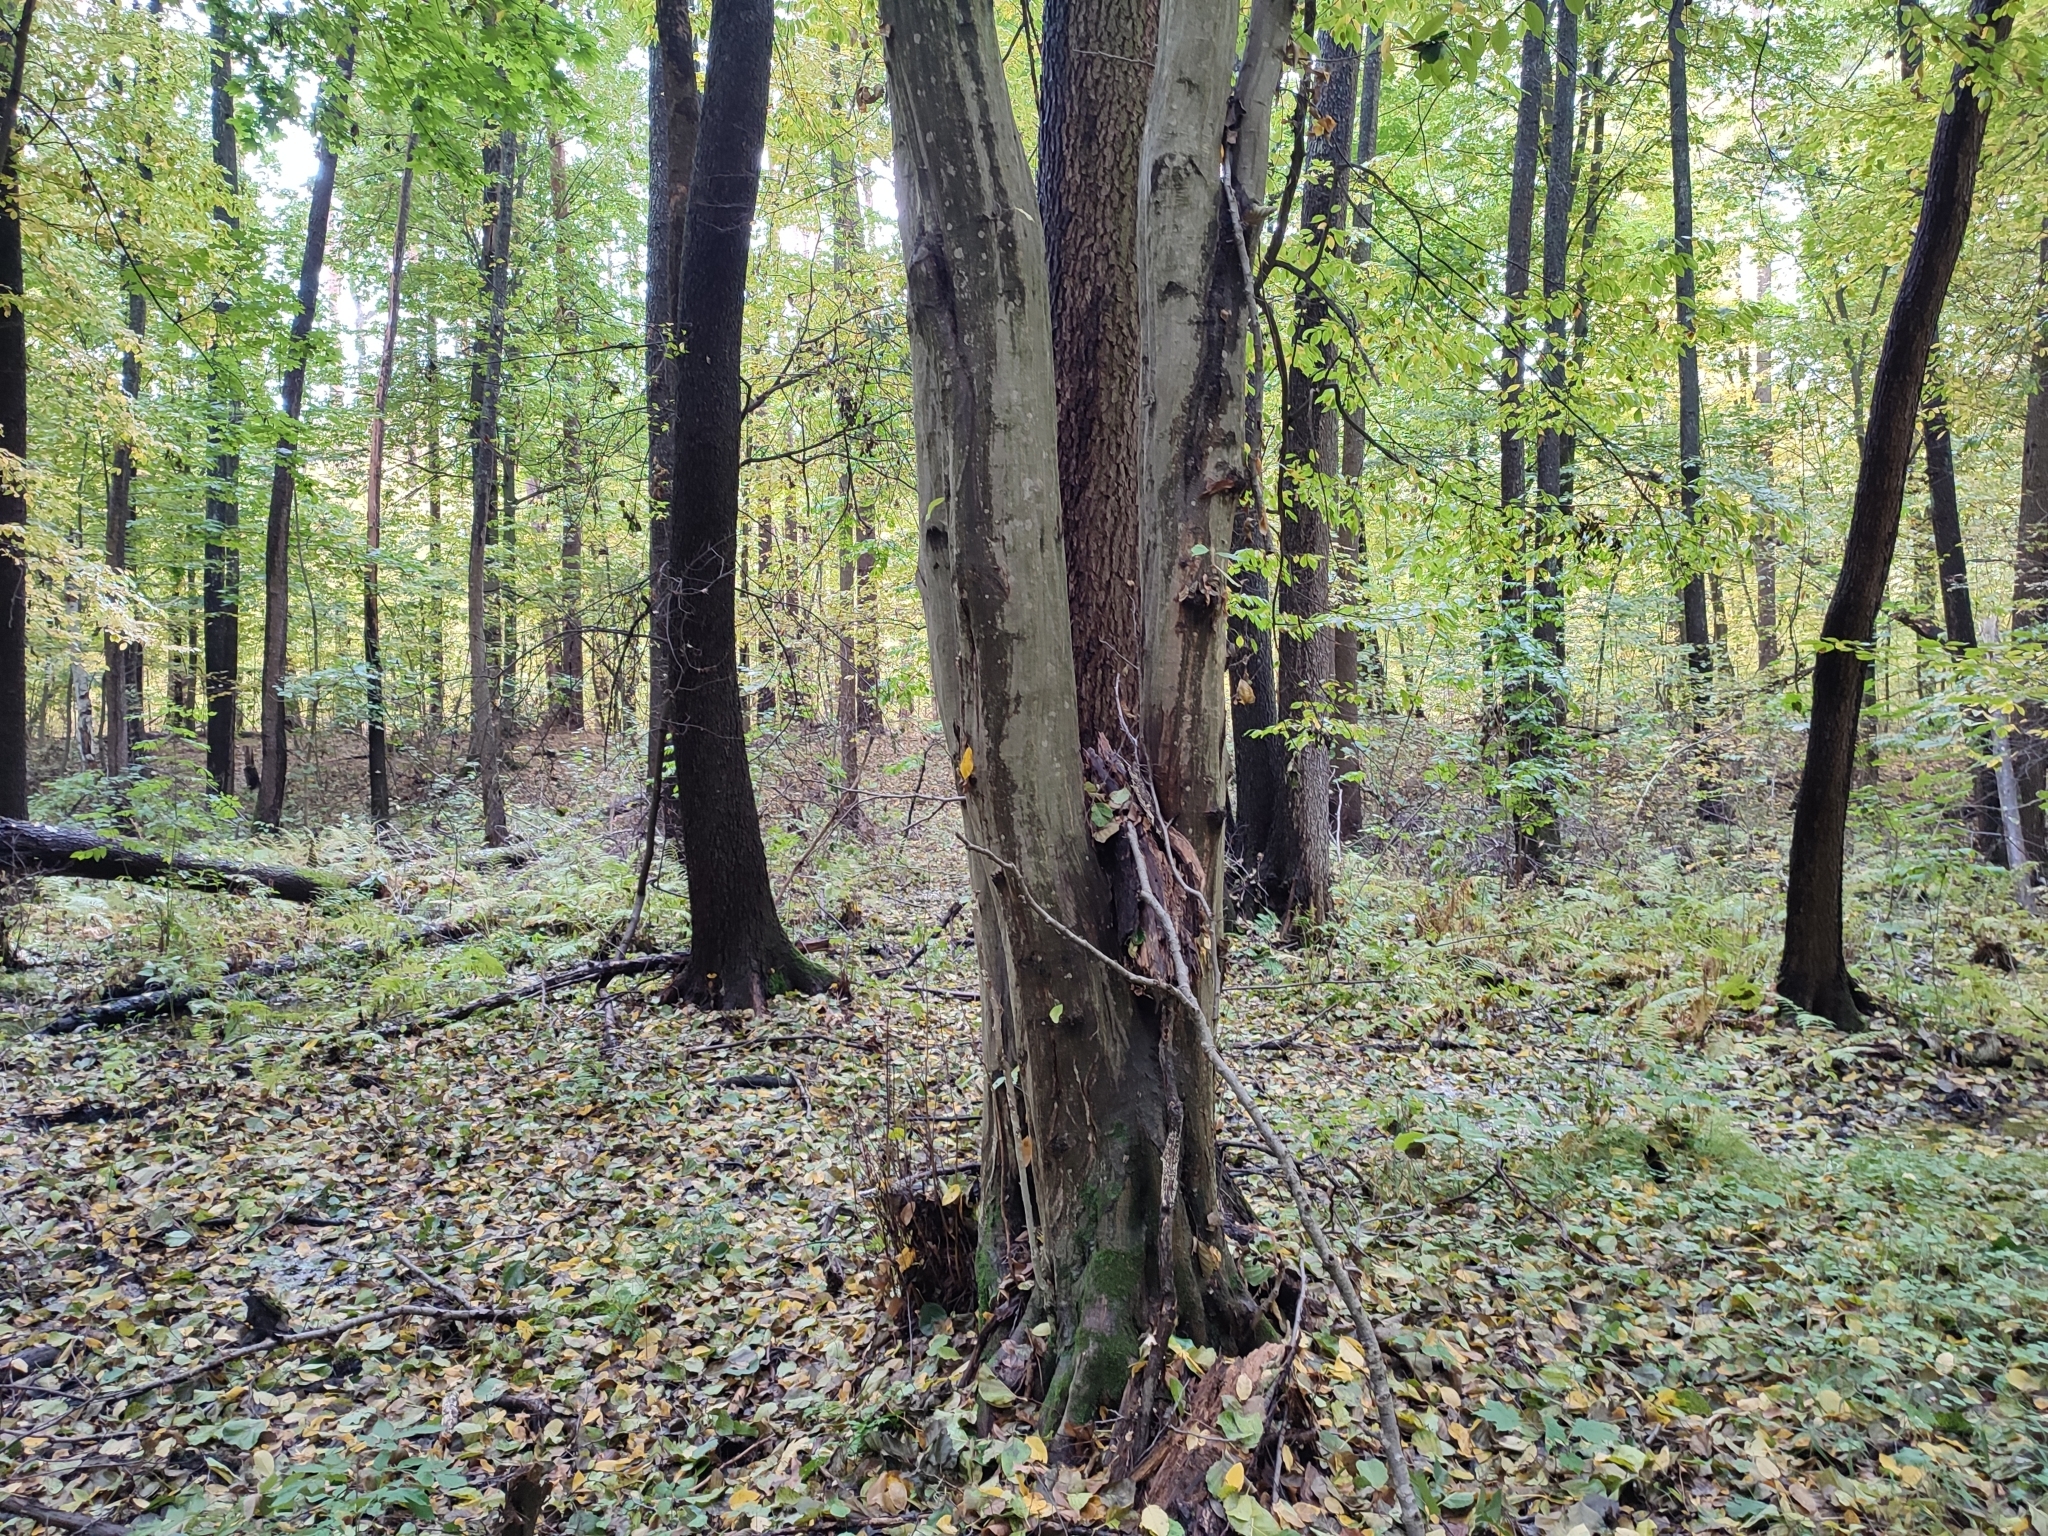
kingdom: Plantae
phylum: Tracheophyta
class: Magnoliopsida
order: Fagales
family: Betulaceae
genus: Carpinus
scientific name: Carpinus betulus
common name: Hornbeam
